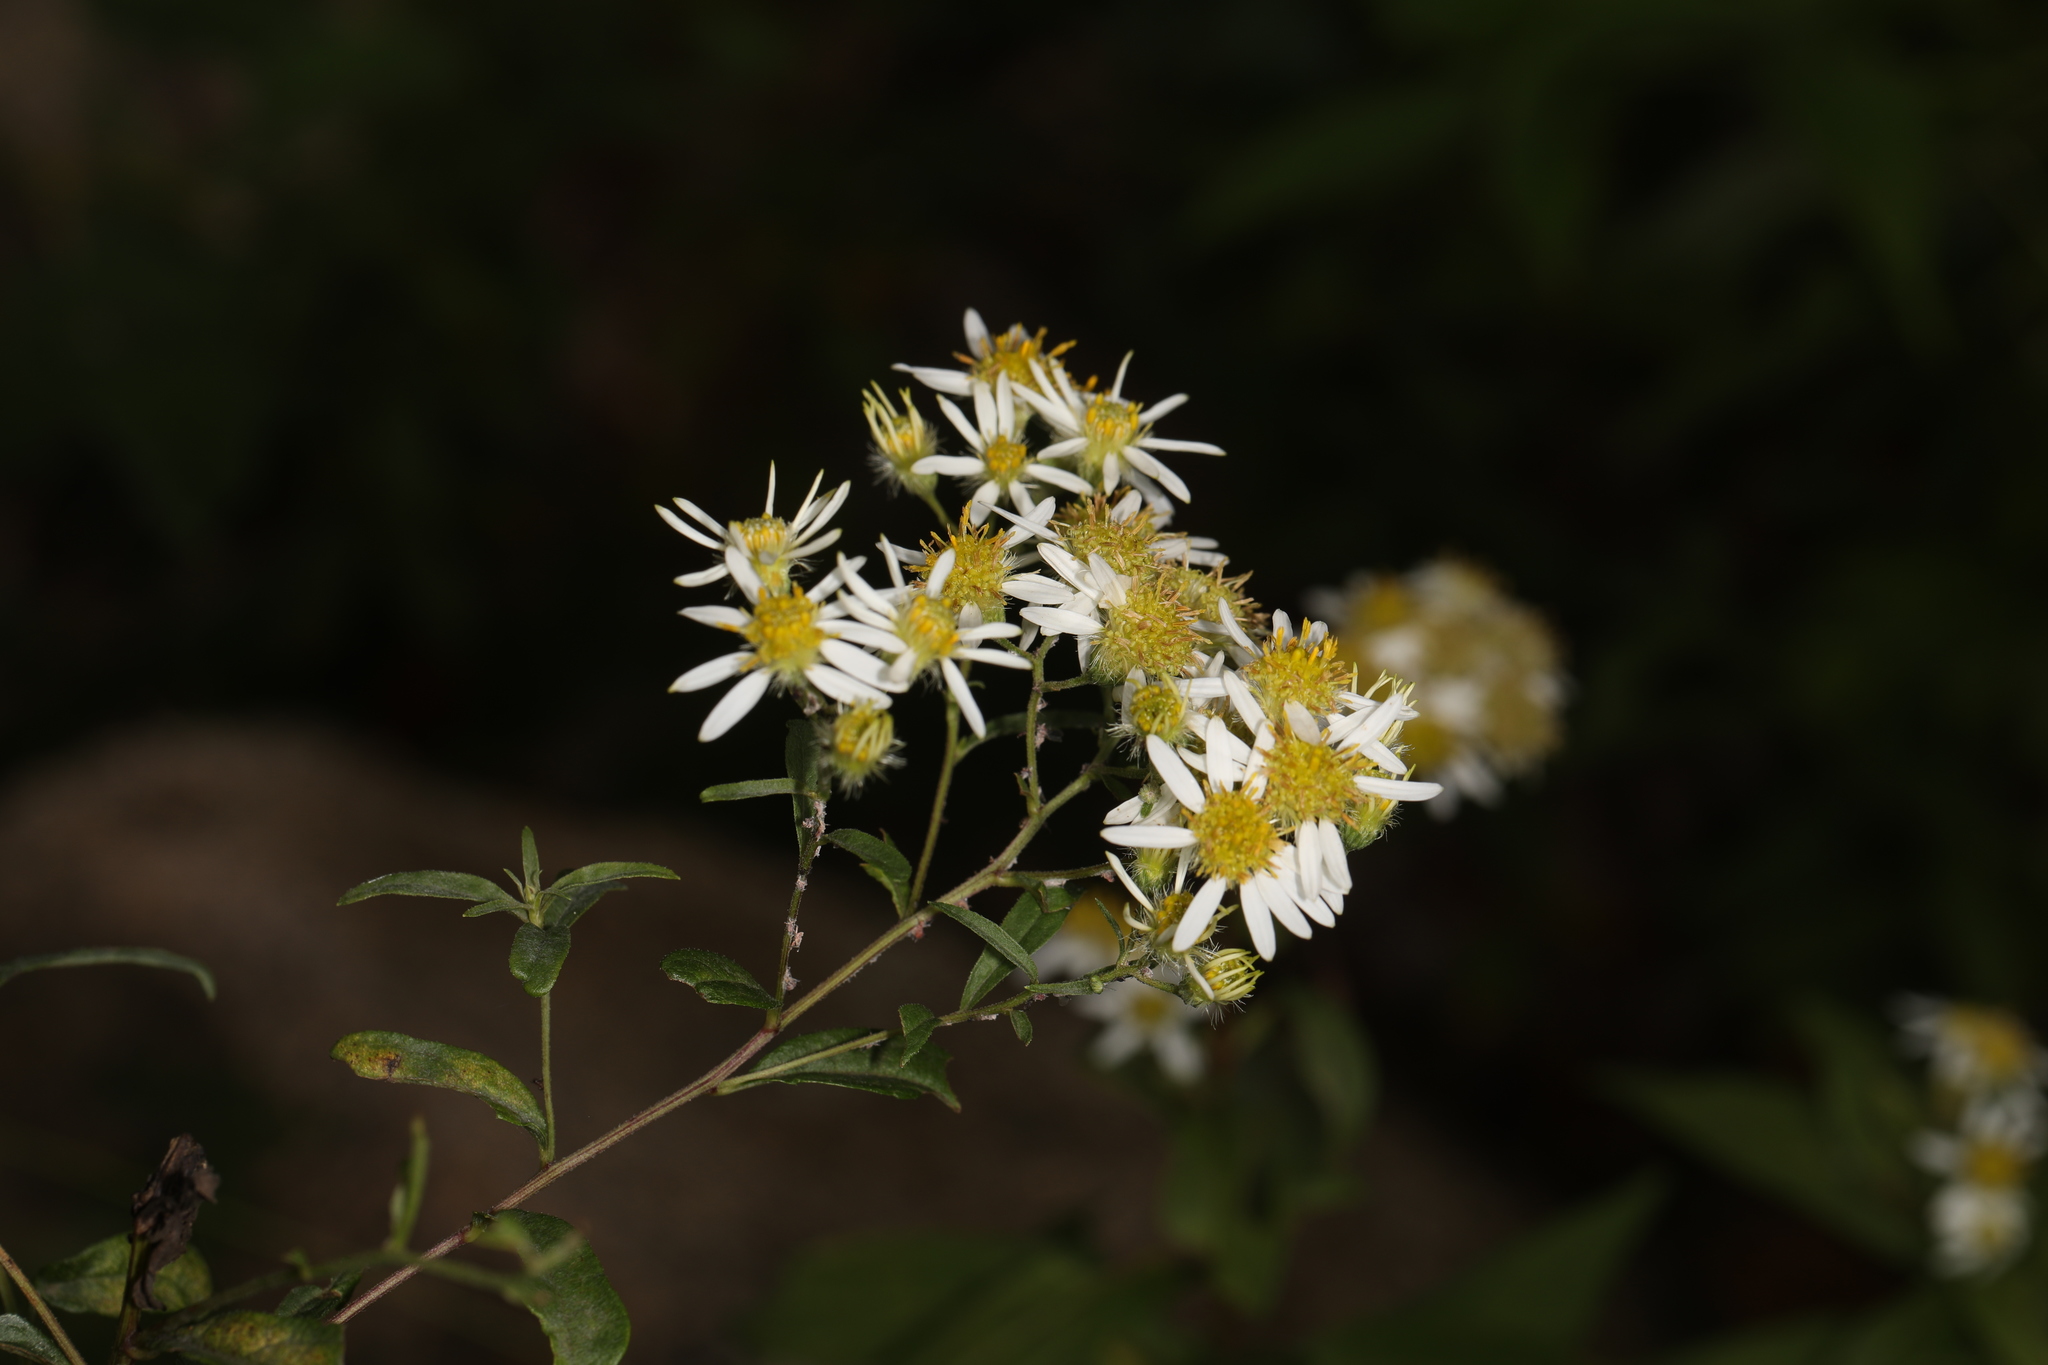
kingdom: Plantae
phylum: Tracheophyta
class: Magnoliopsida
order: Asterales
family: Asteraceae
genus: Doellingeria
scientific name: Doellingeria umbellata
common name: Flat-top white aster
